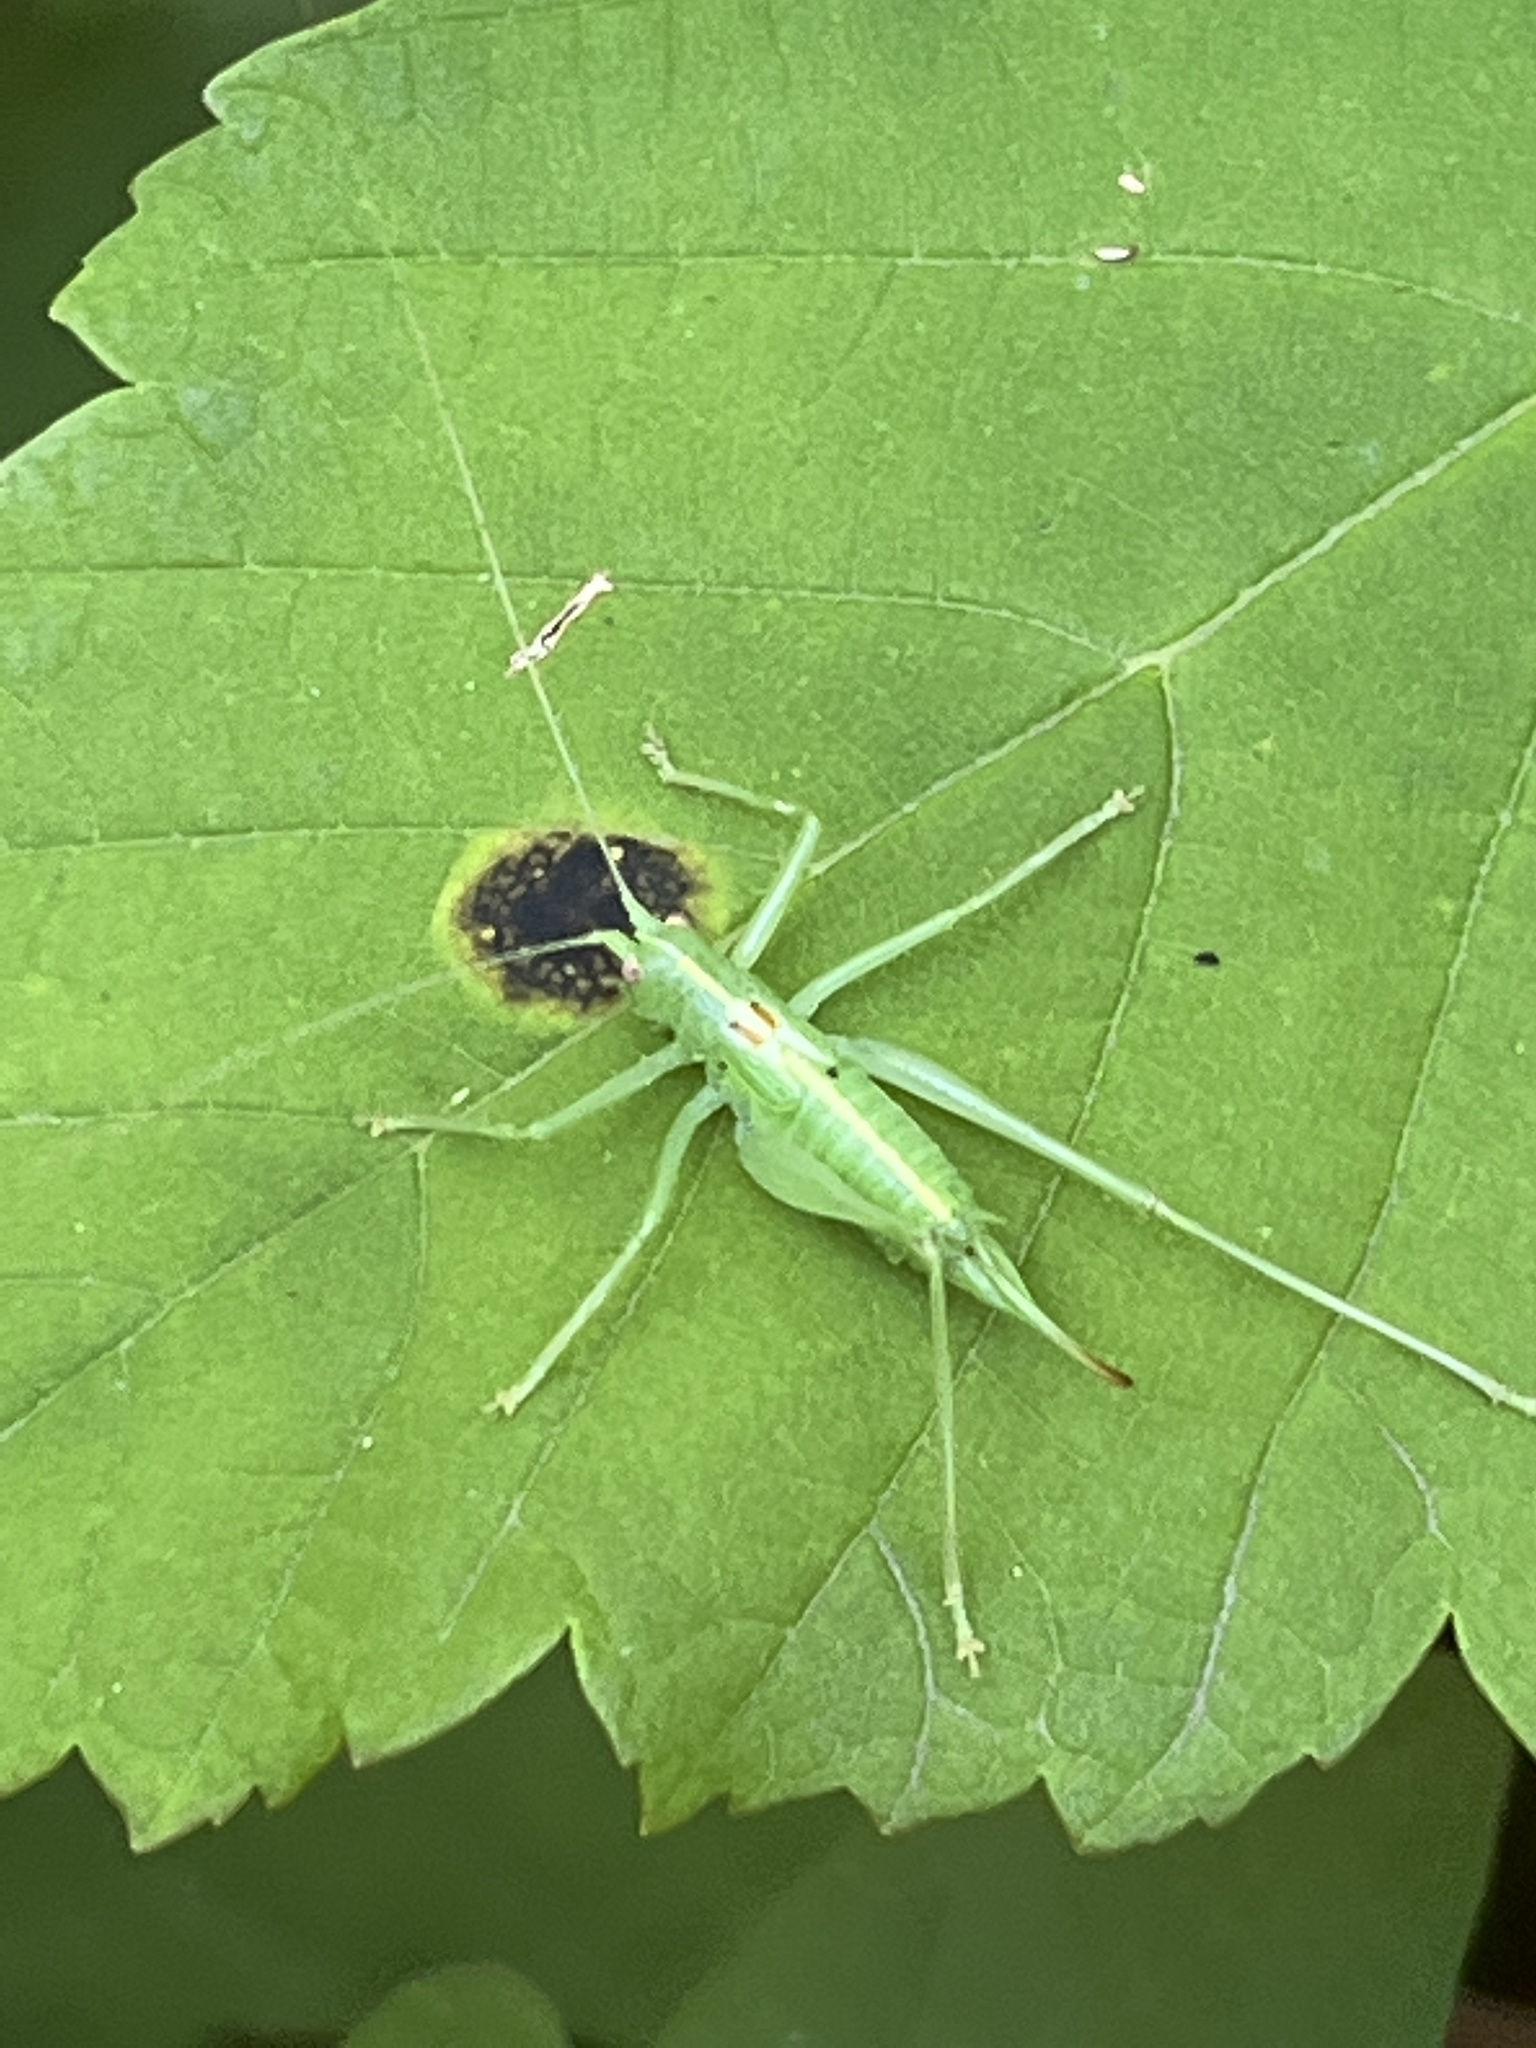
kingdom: Animalia
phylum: Arthropoda
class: Insecta
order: Orthoptera
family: Tettigoniidae
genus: Meconema
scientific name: Meconema meridionale
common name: Southern oak bush-cricket
